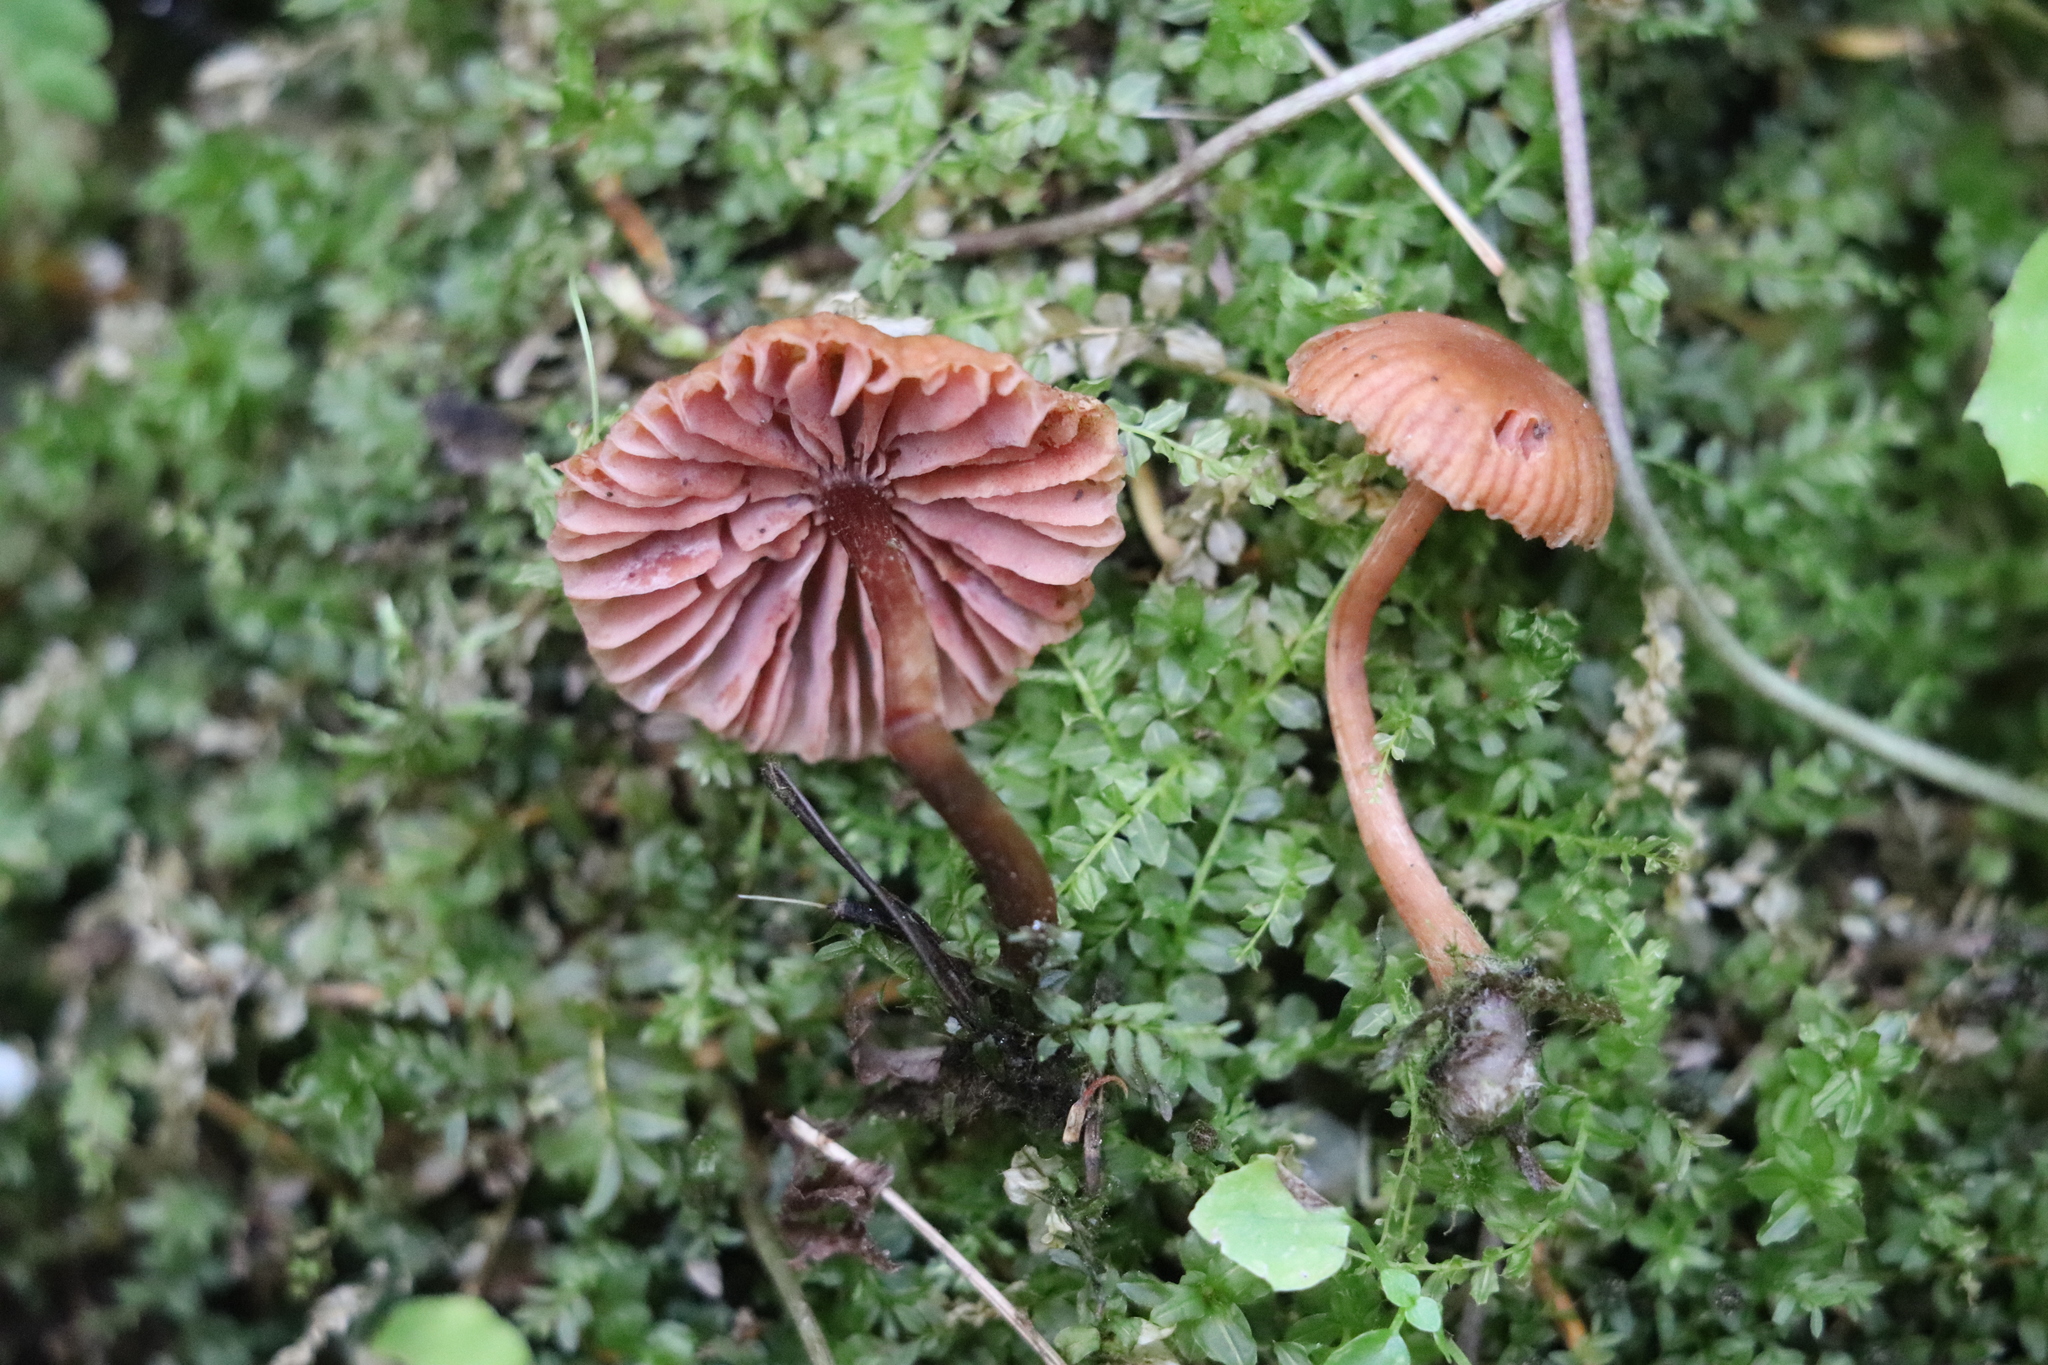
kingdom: Fungi
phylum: Basidiomycota
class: Agaricomycetes
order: Agaricales
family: Hydnangiaceae
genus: Laccaria
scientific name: Laccaria laccata
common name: Deceiver
